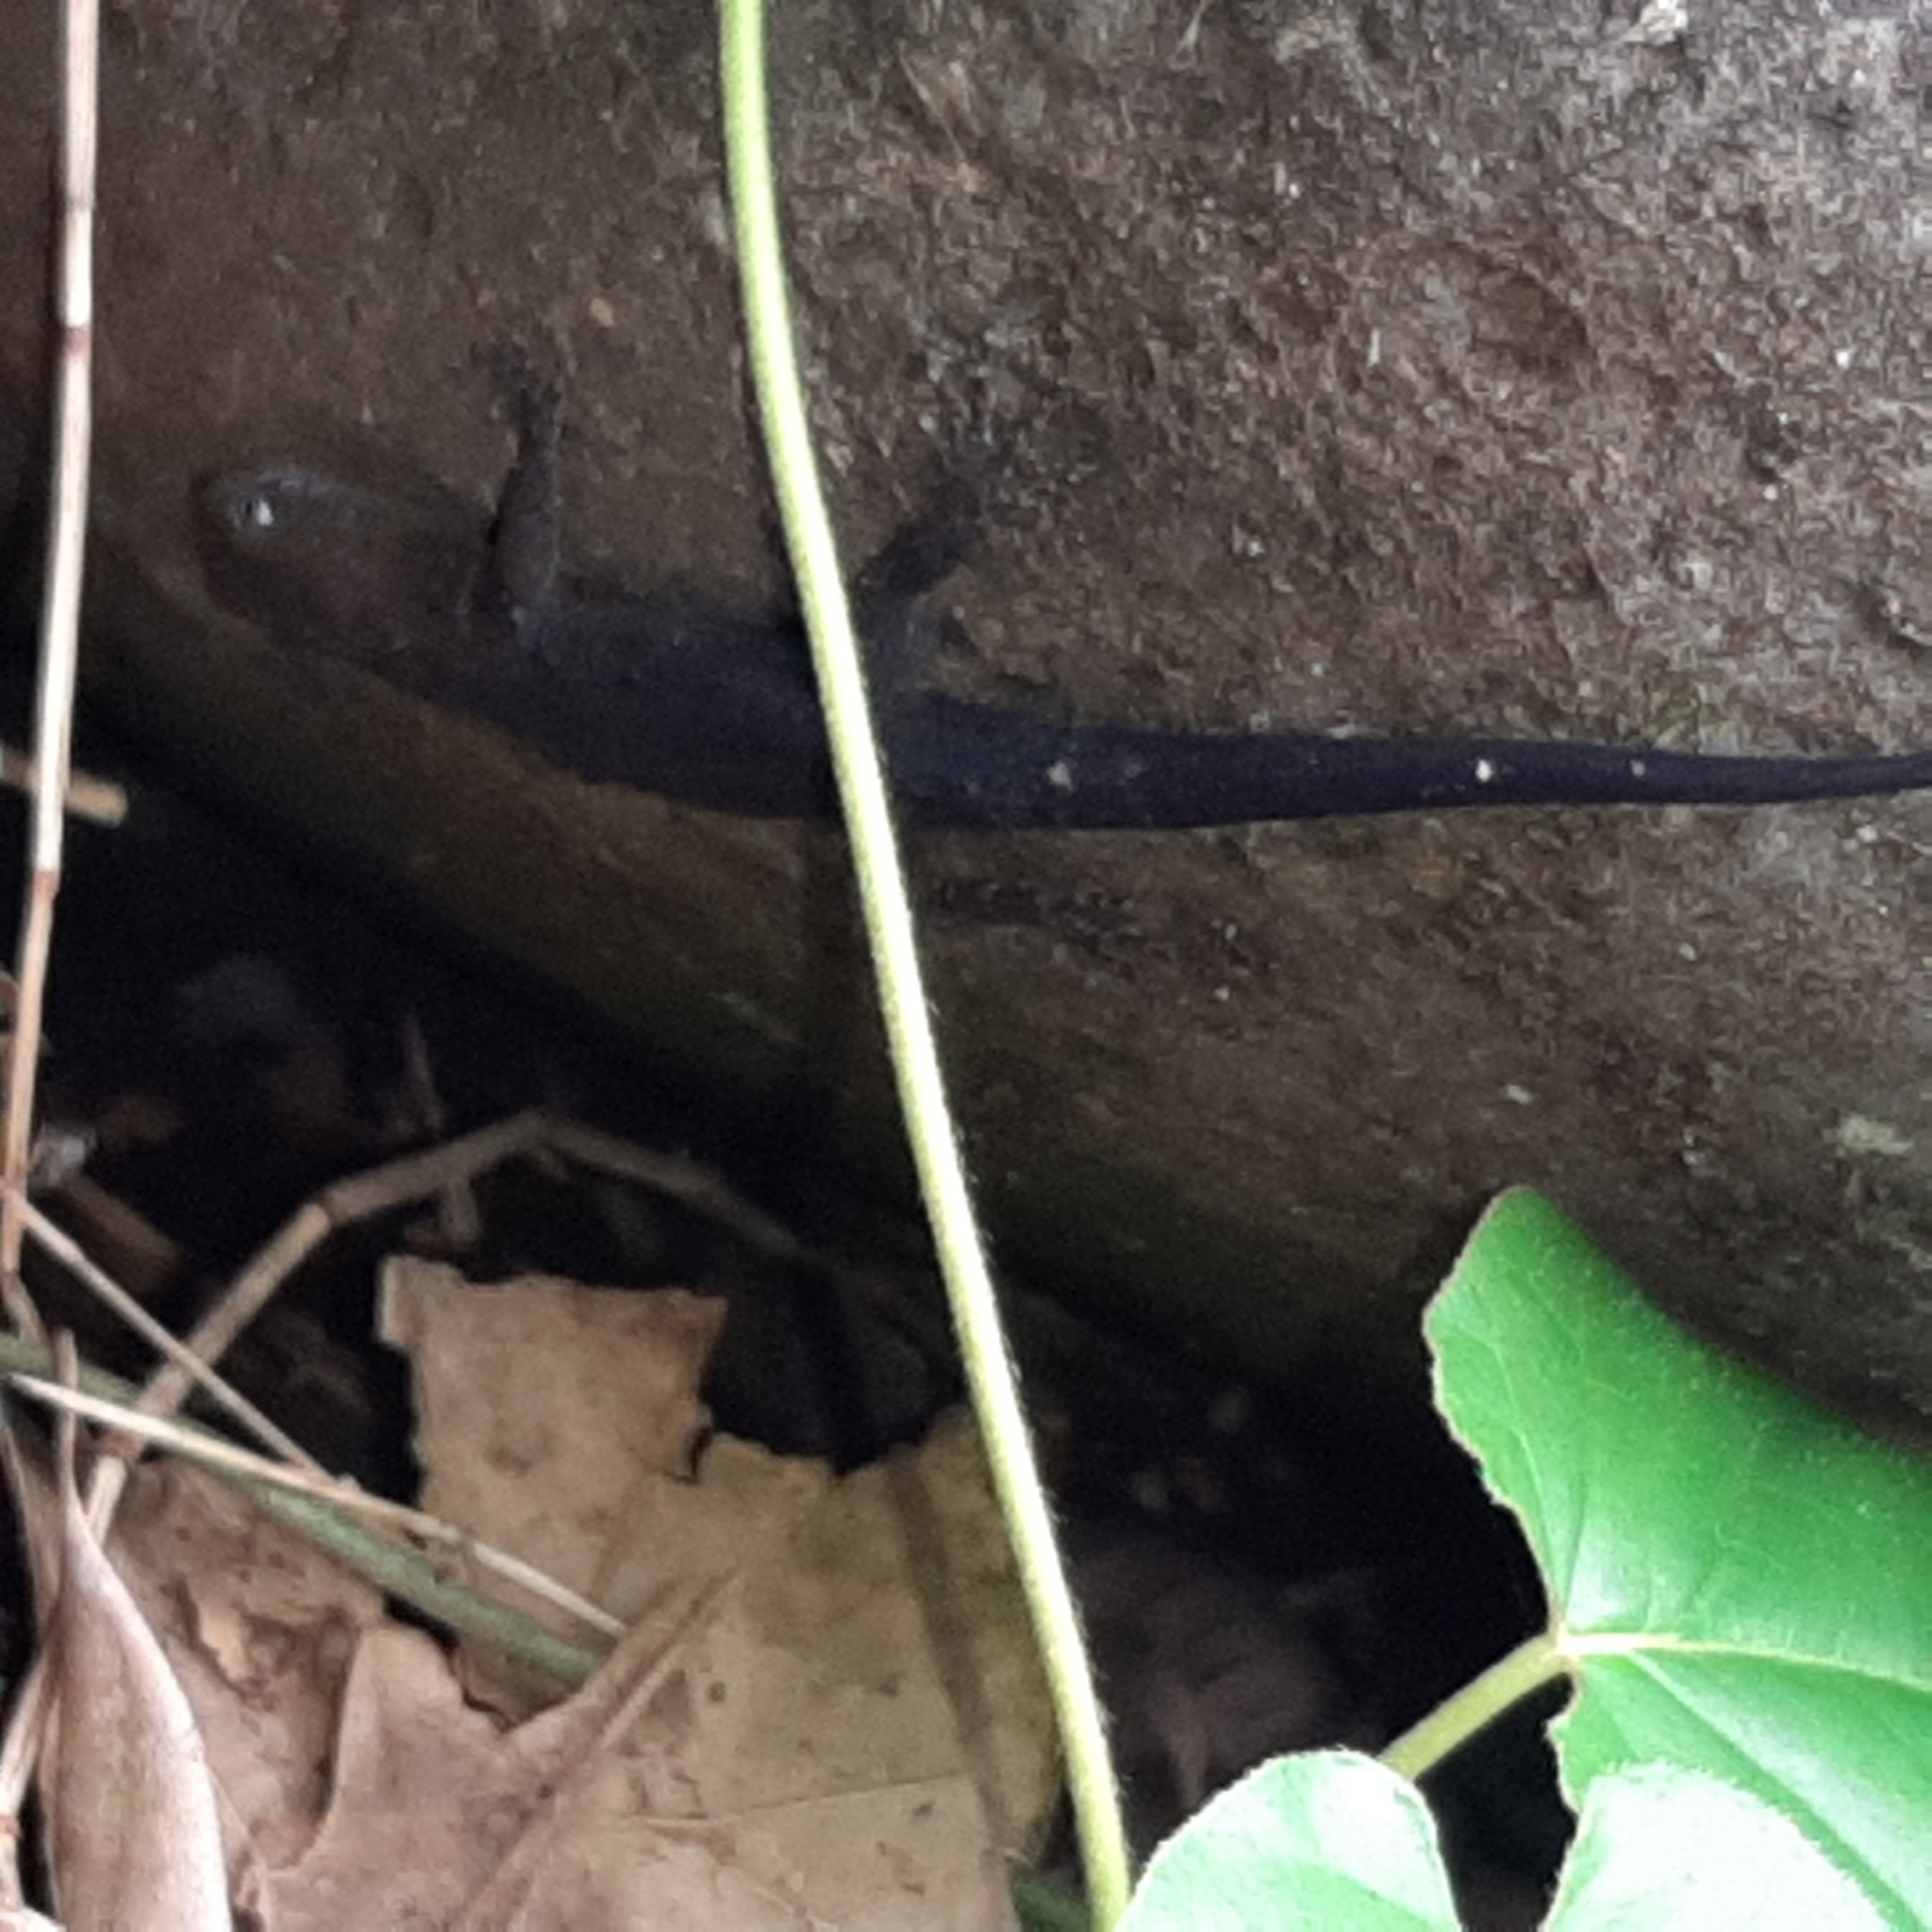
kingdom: Animalia
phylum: Chordata
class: Squamata
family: Sphaerodactylidae
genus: Gonatodes
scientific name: Gonatodes albogularis
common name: Yellow-headed gecko
